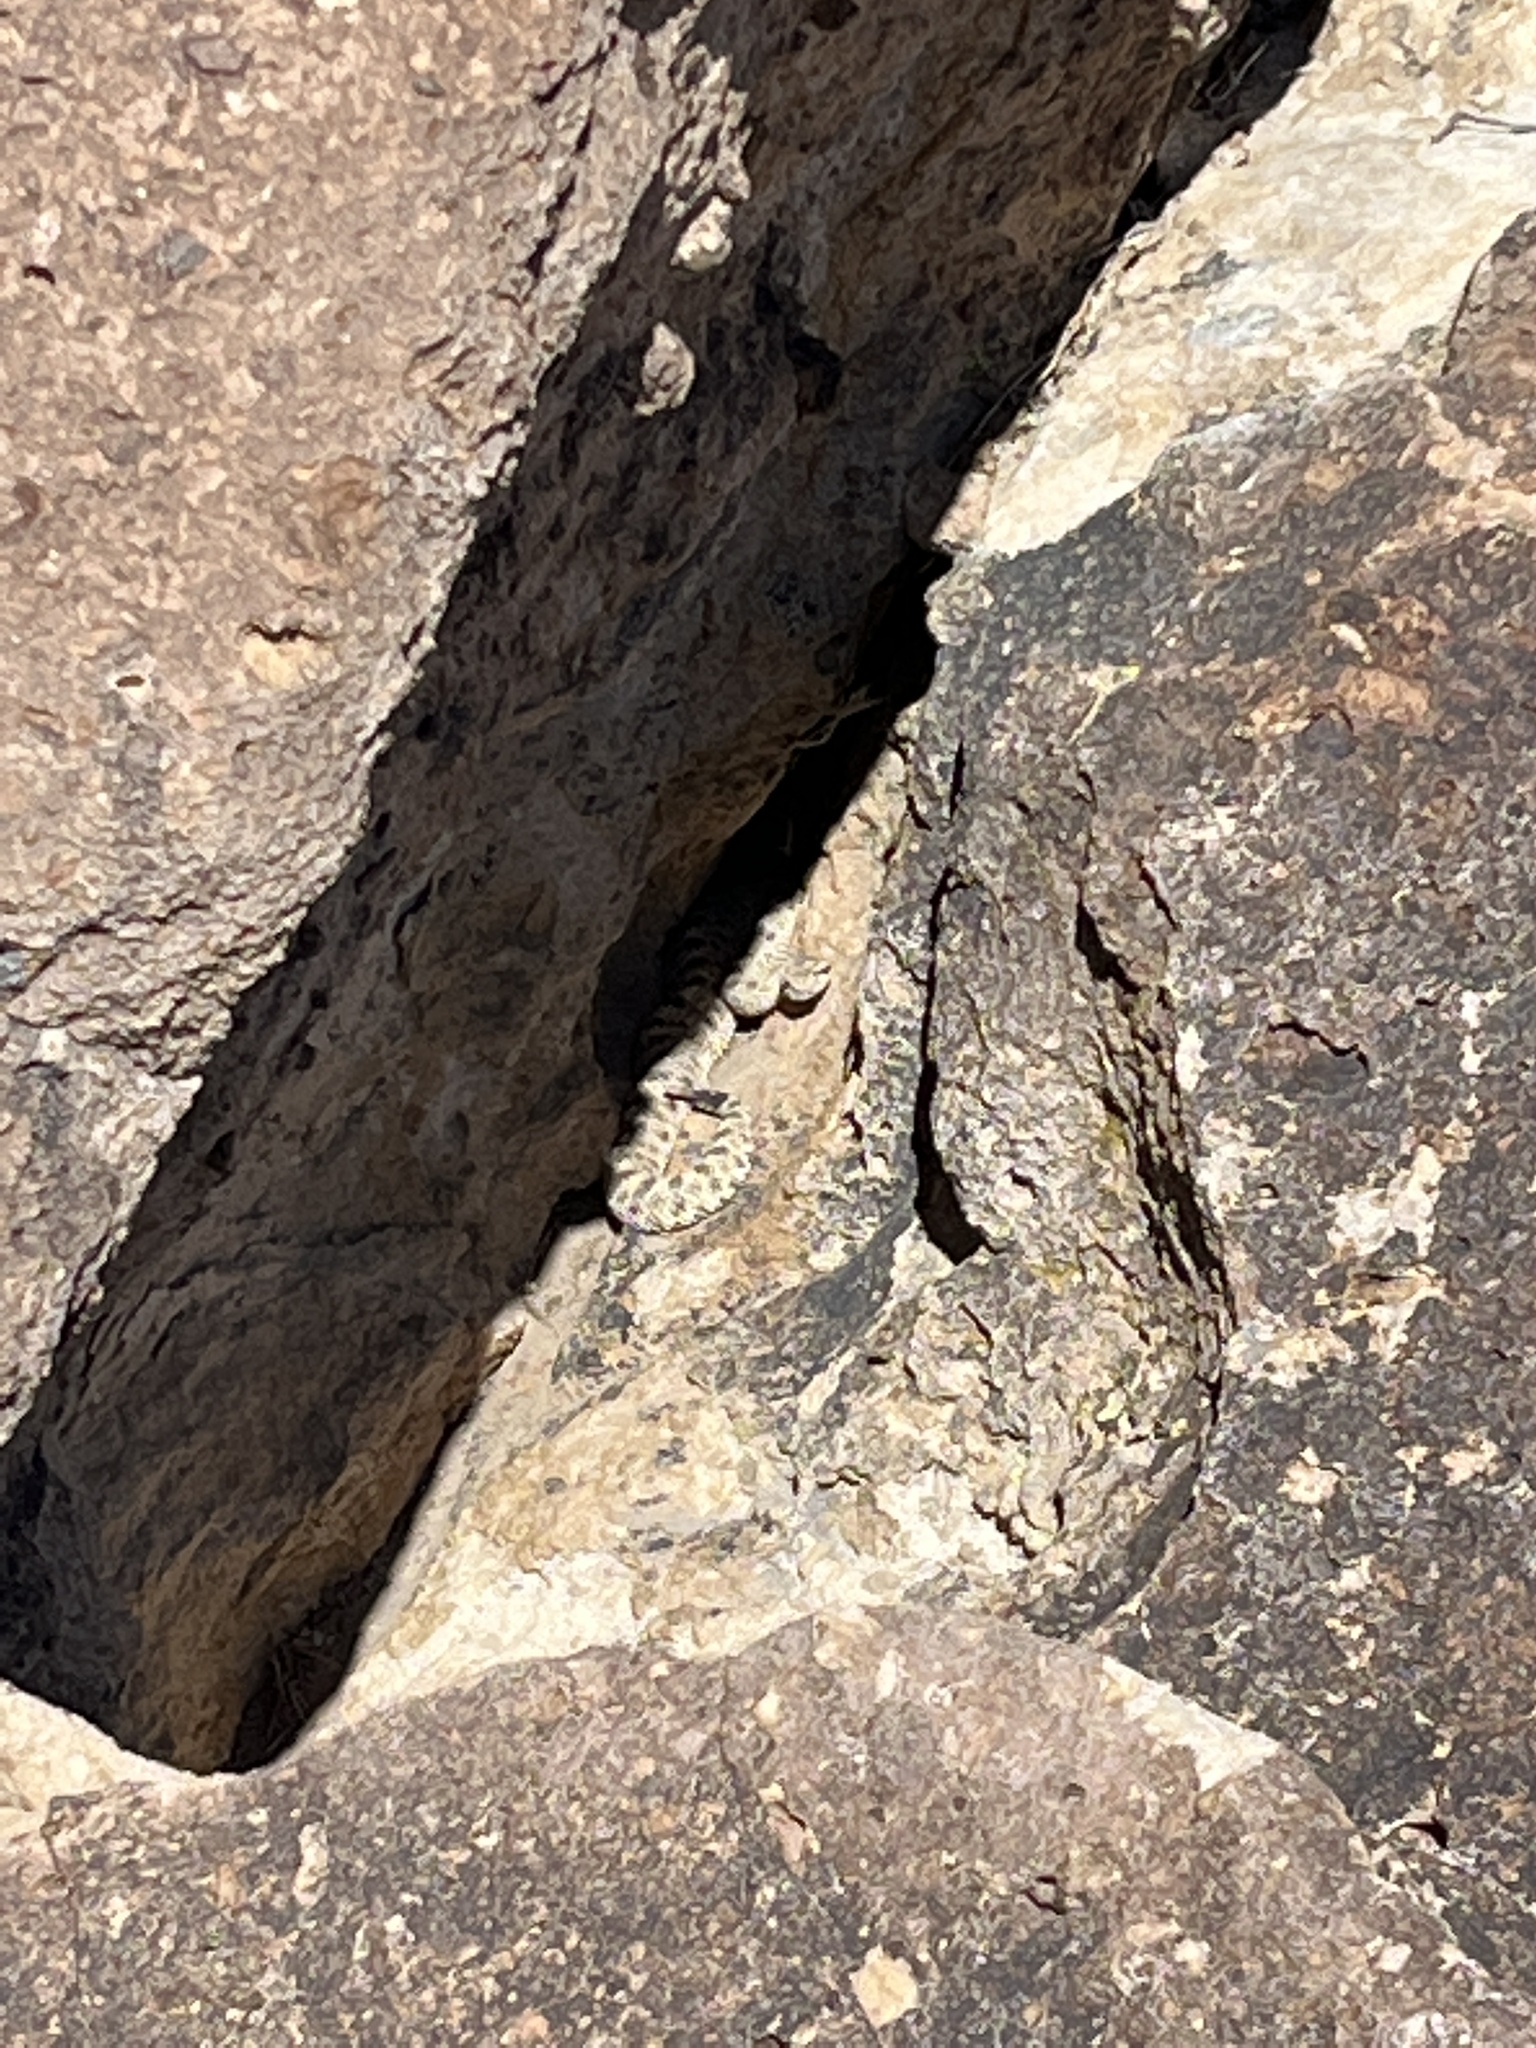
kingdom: Animalia
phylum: Chordata
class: Squamata
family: Viperidae
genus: Crotalus
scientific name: Crotalus cerastes
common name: Sidewinder
